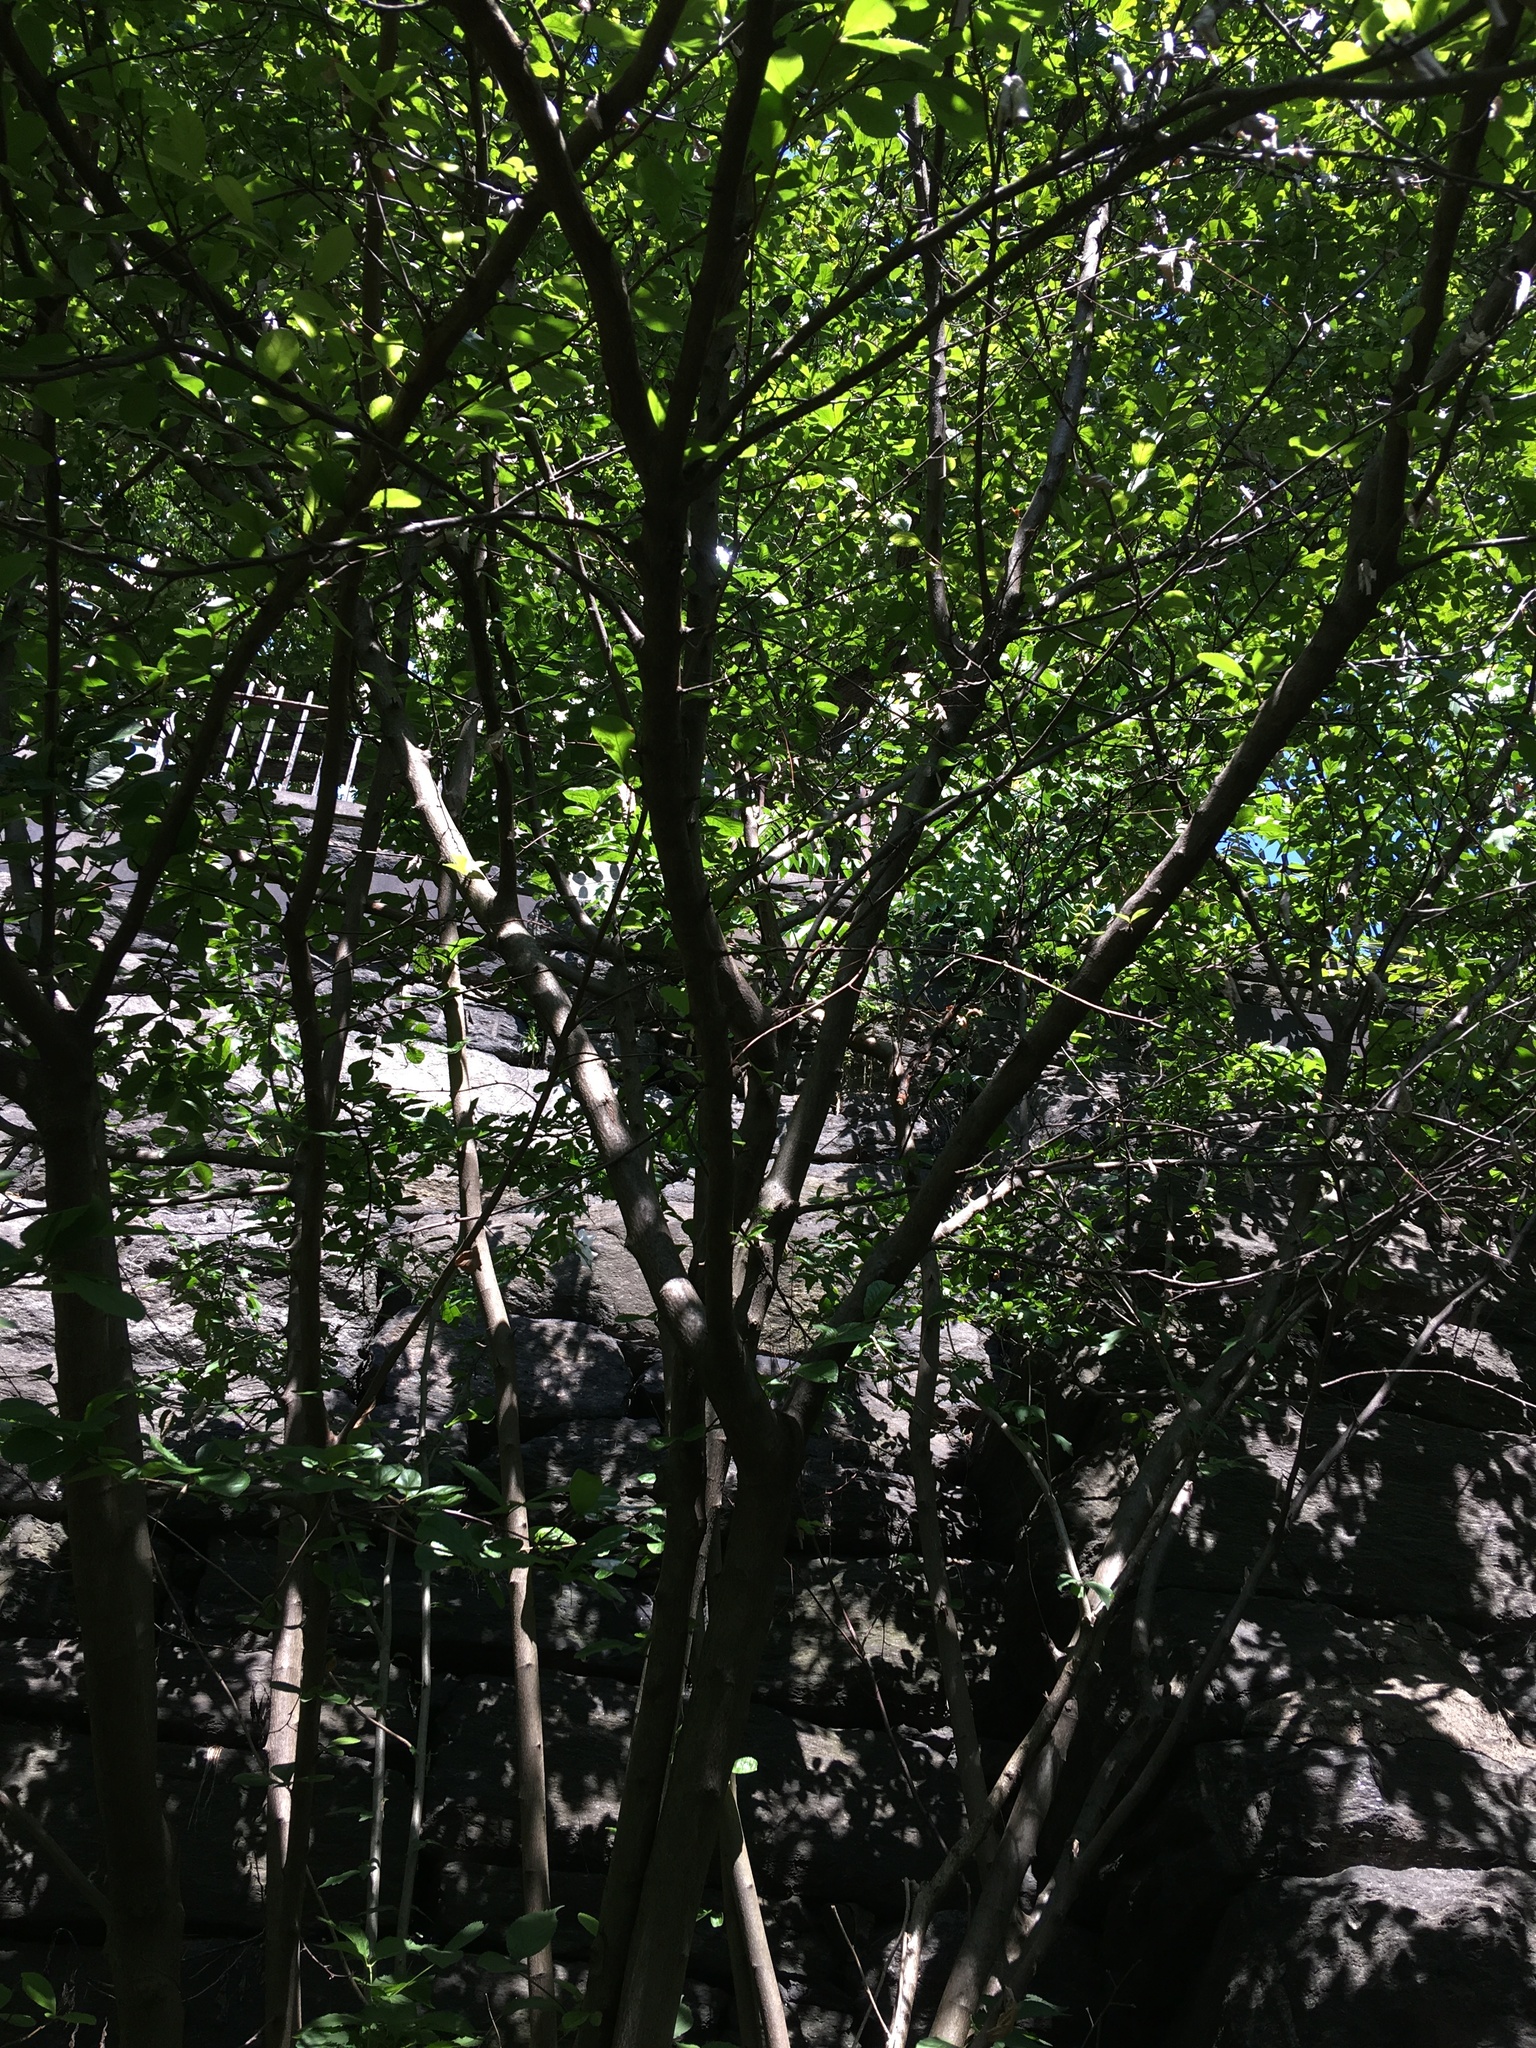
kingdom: Plantae
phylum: Tracheophyta
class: Magnoliopsida
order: Rosales
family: Rosaceae
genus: Pourthiaea
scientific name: Pourthiaea villosa
